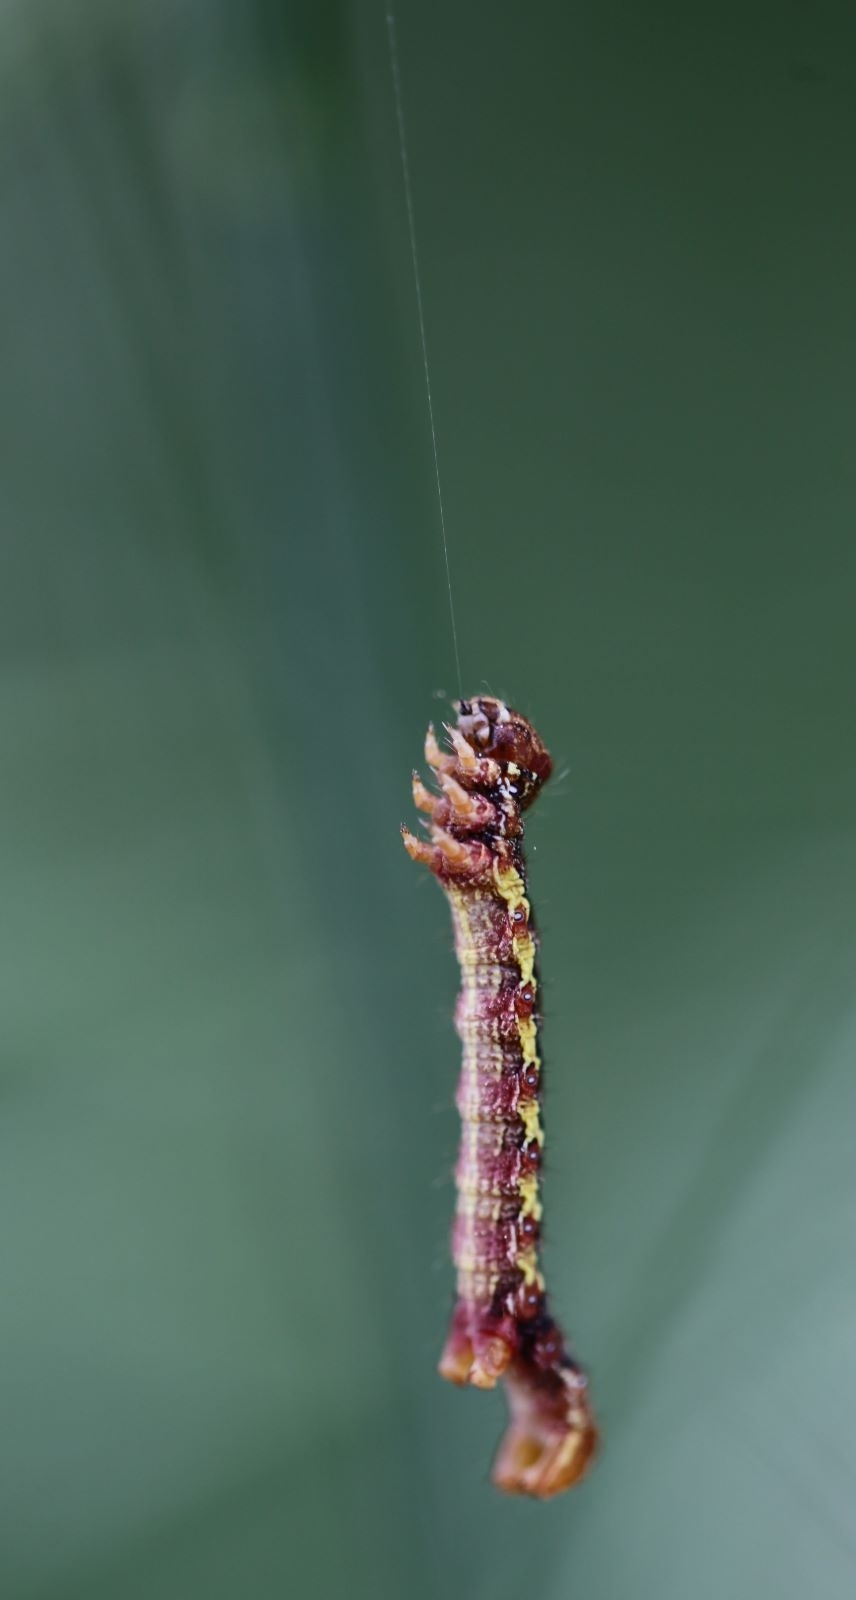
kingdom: Animalia
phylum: Arthropoda
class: Insecta
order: Lepidoptera
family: Geometridae
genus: Erannis
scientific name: Erannis defoliaria
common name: Mottled umber
